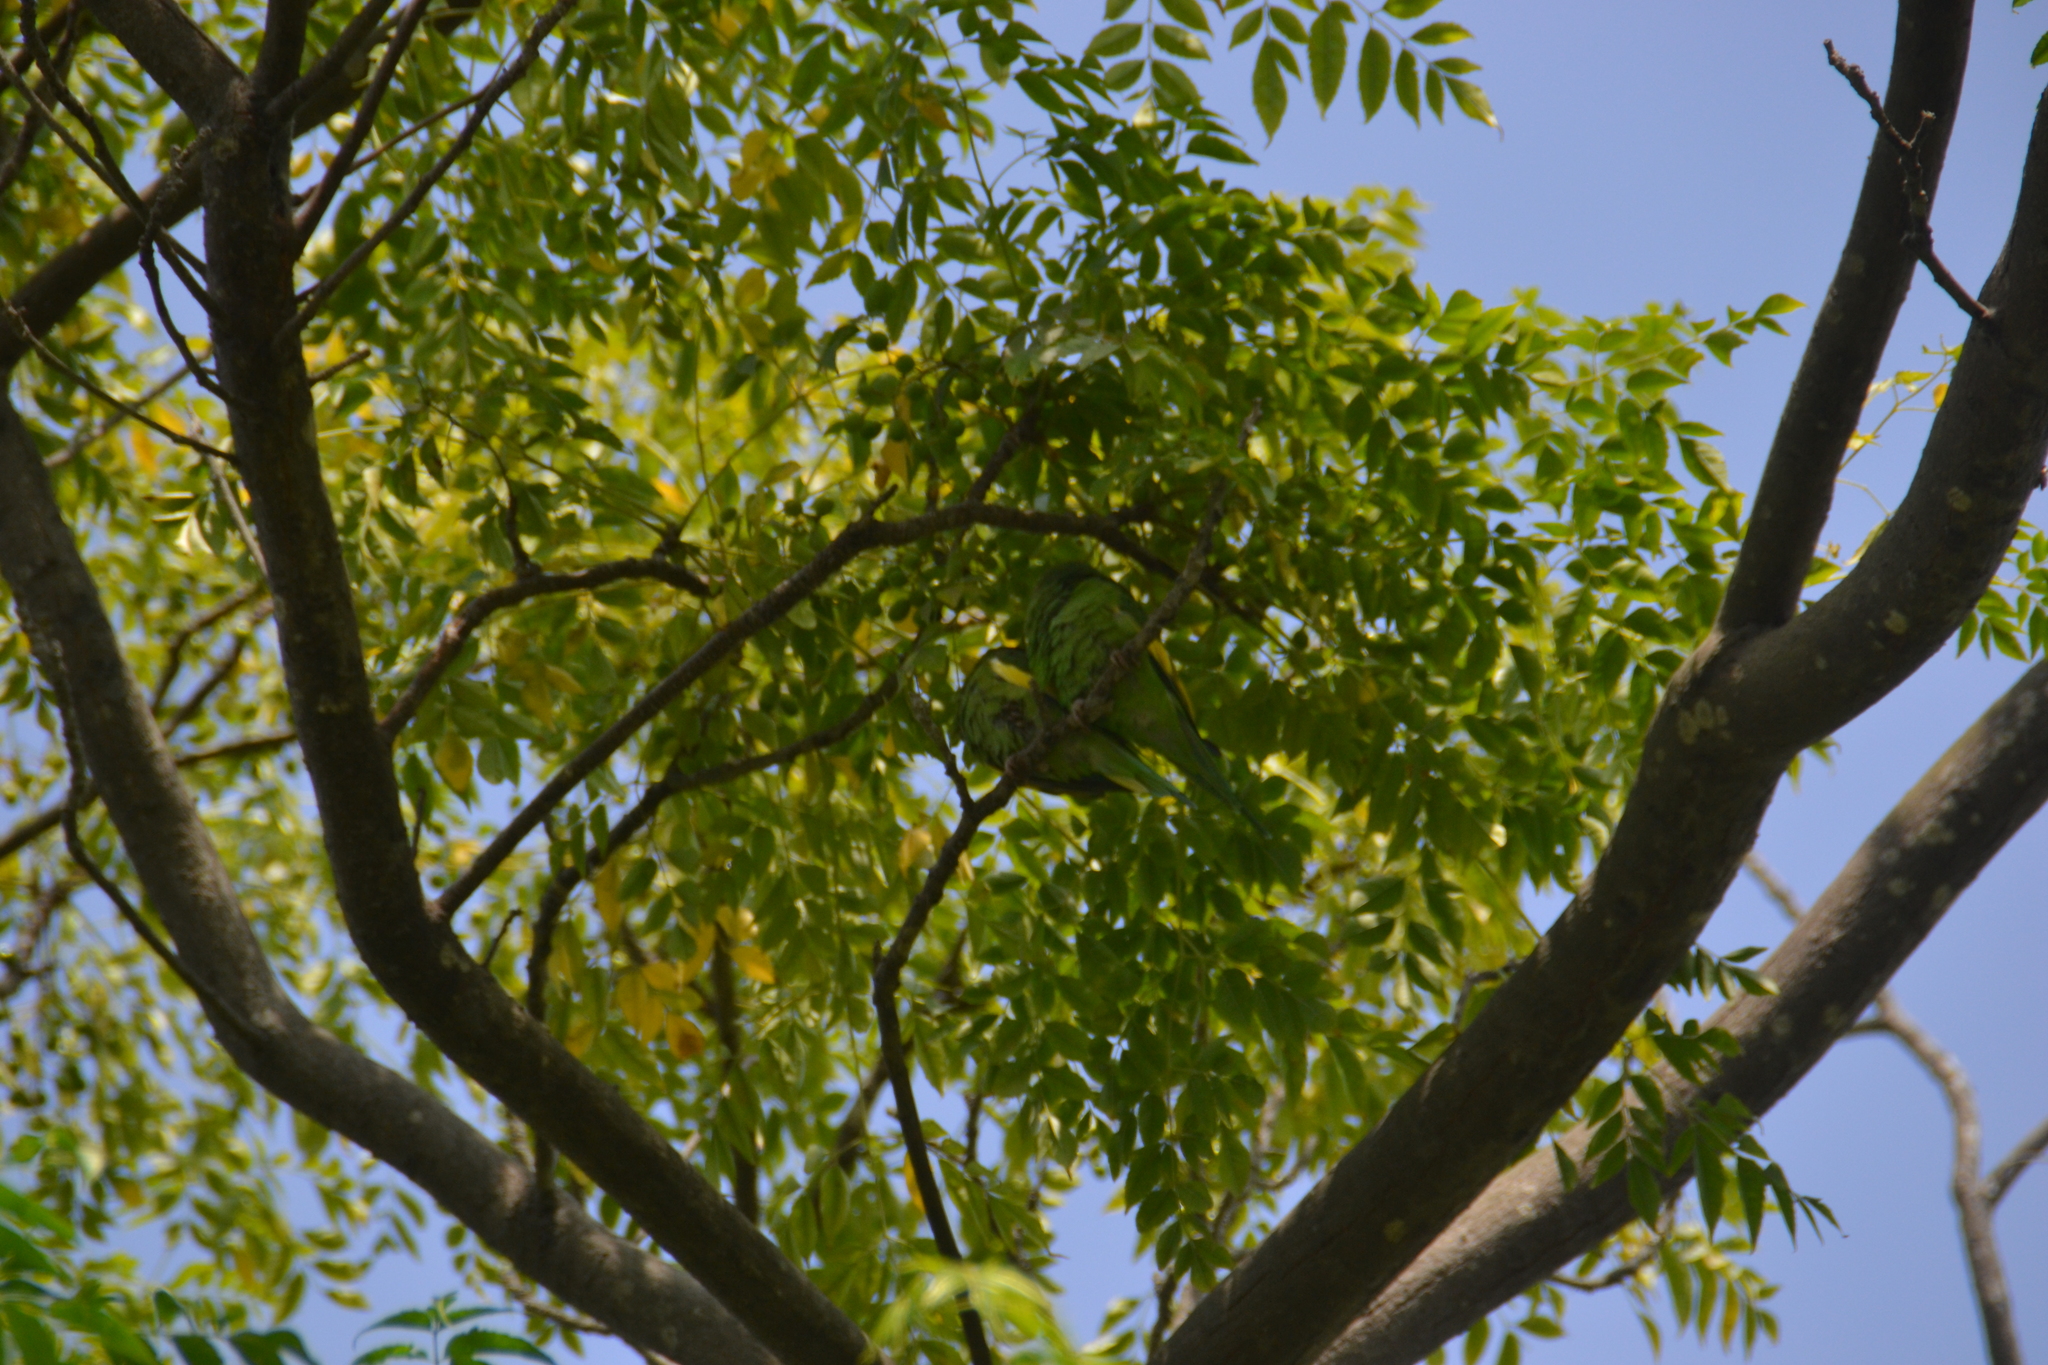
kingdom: Animalia
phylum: Chordata
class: Aves
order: Psittaciformes
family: Psittacidae
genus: Brotogeris
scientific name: Brotogeris versicolurus
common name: White-winged parakeet
